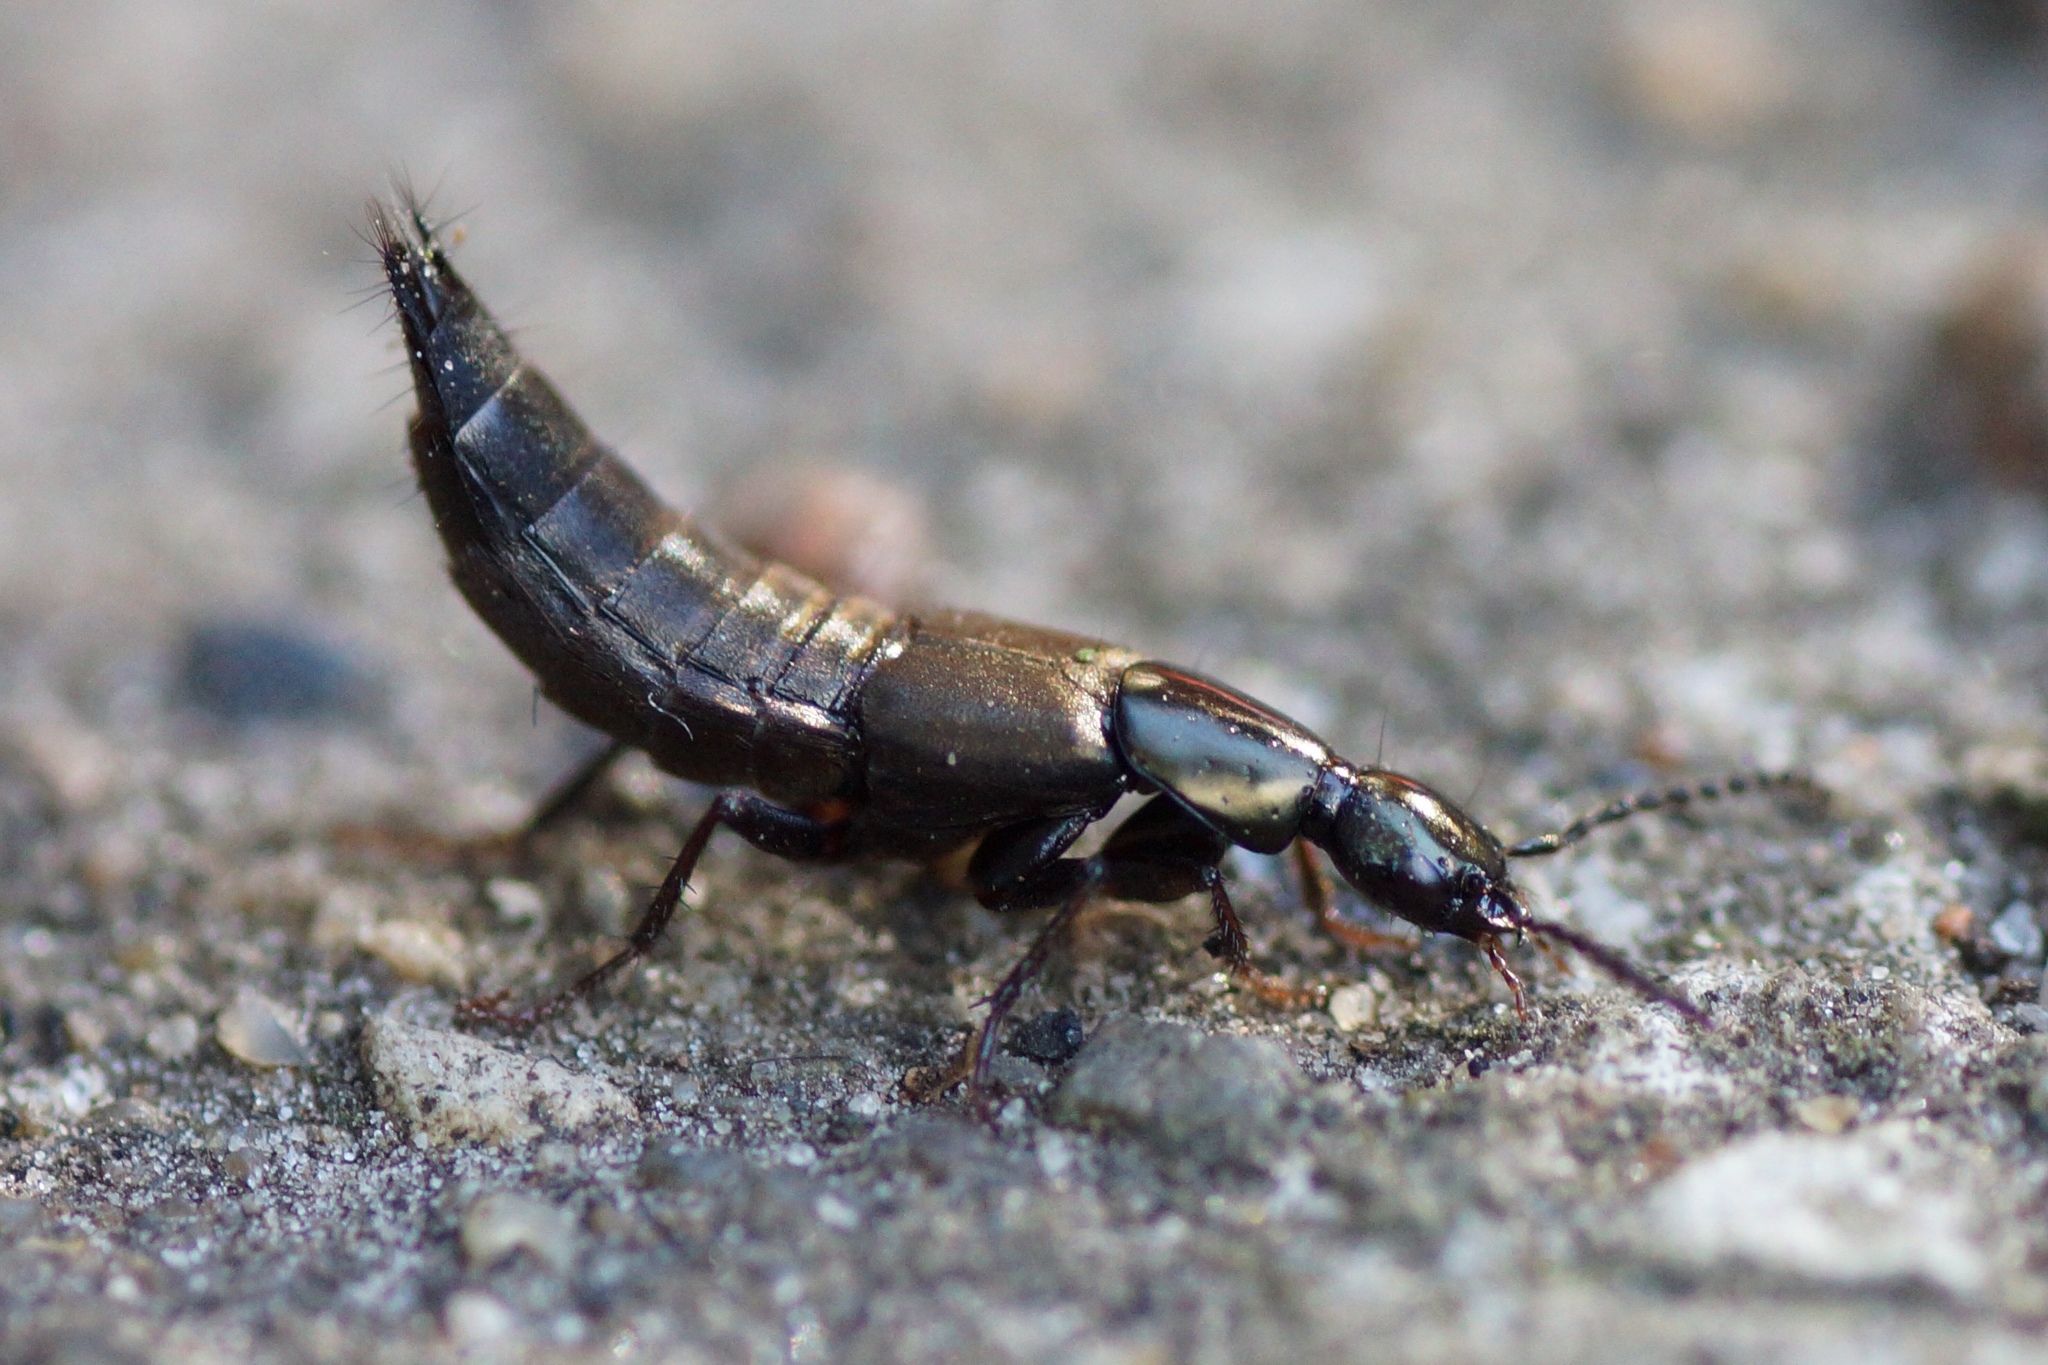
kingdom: Animalia
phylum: Arthropoda
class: Insecta
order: Coleoptera
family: Staphylinidae
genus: Philonthus
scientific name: Philonthus decorus
